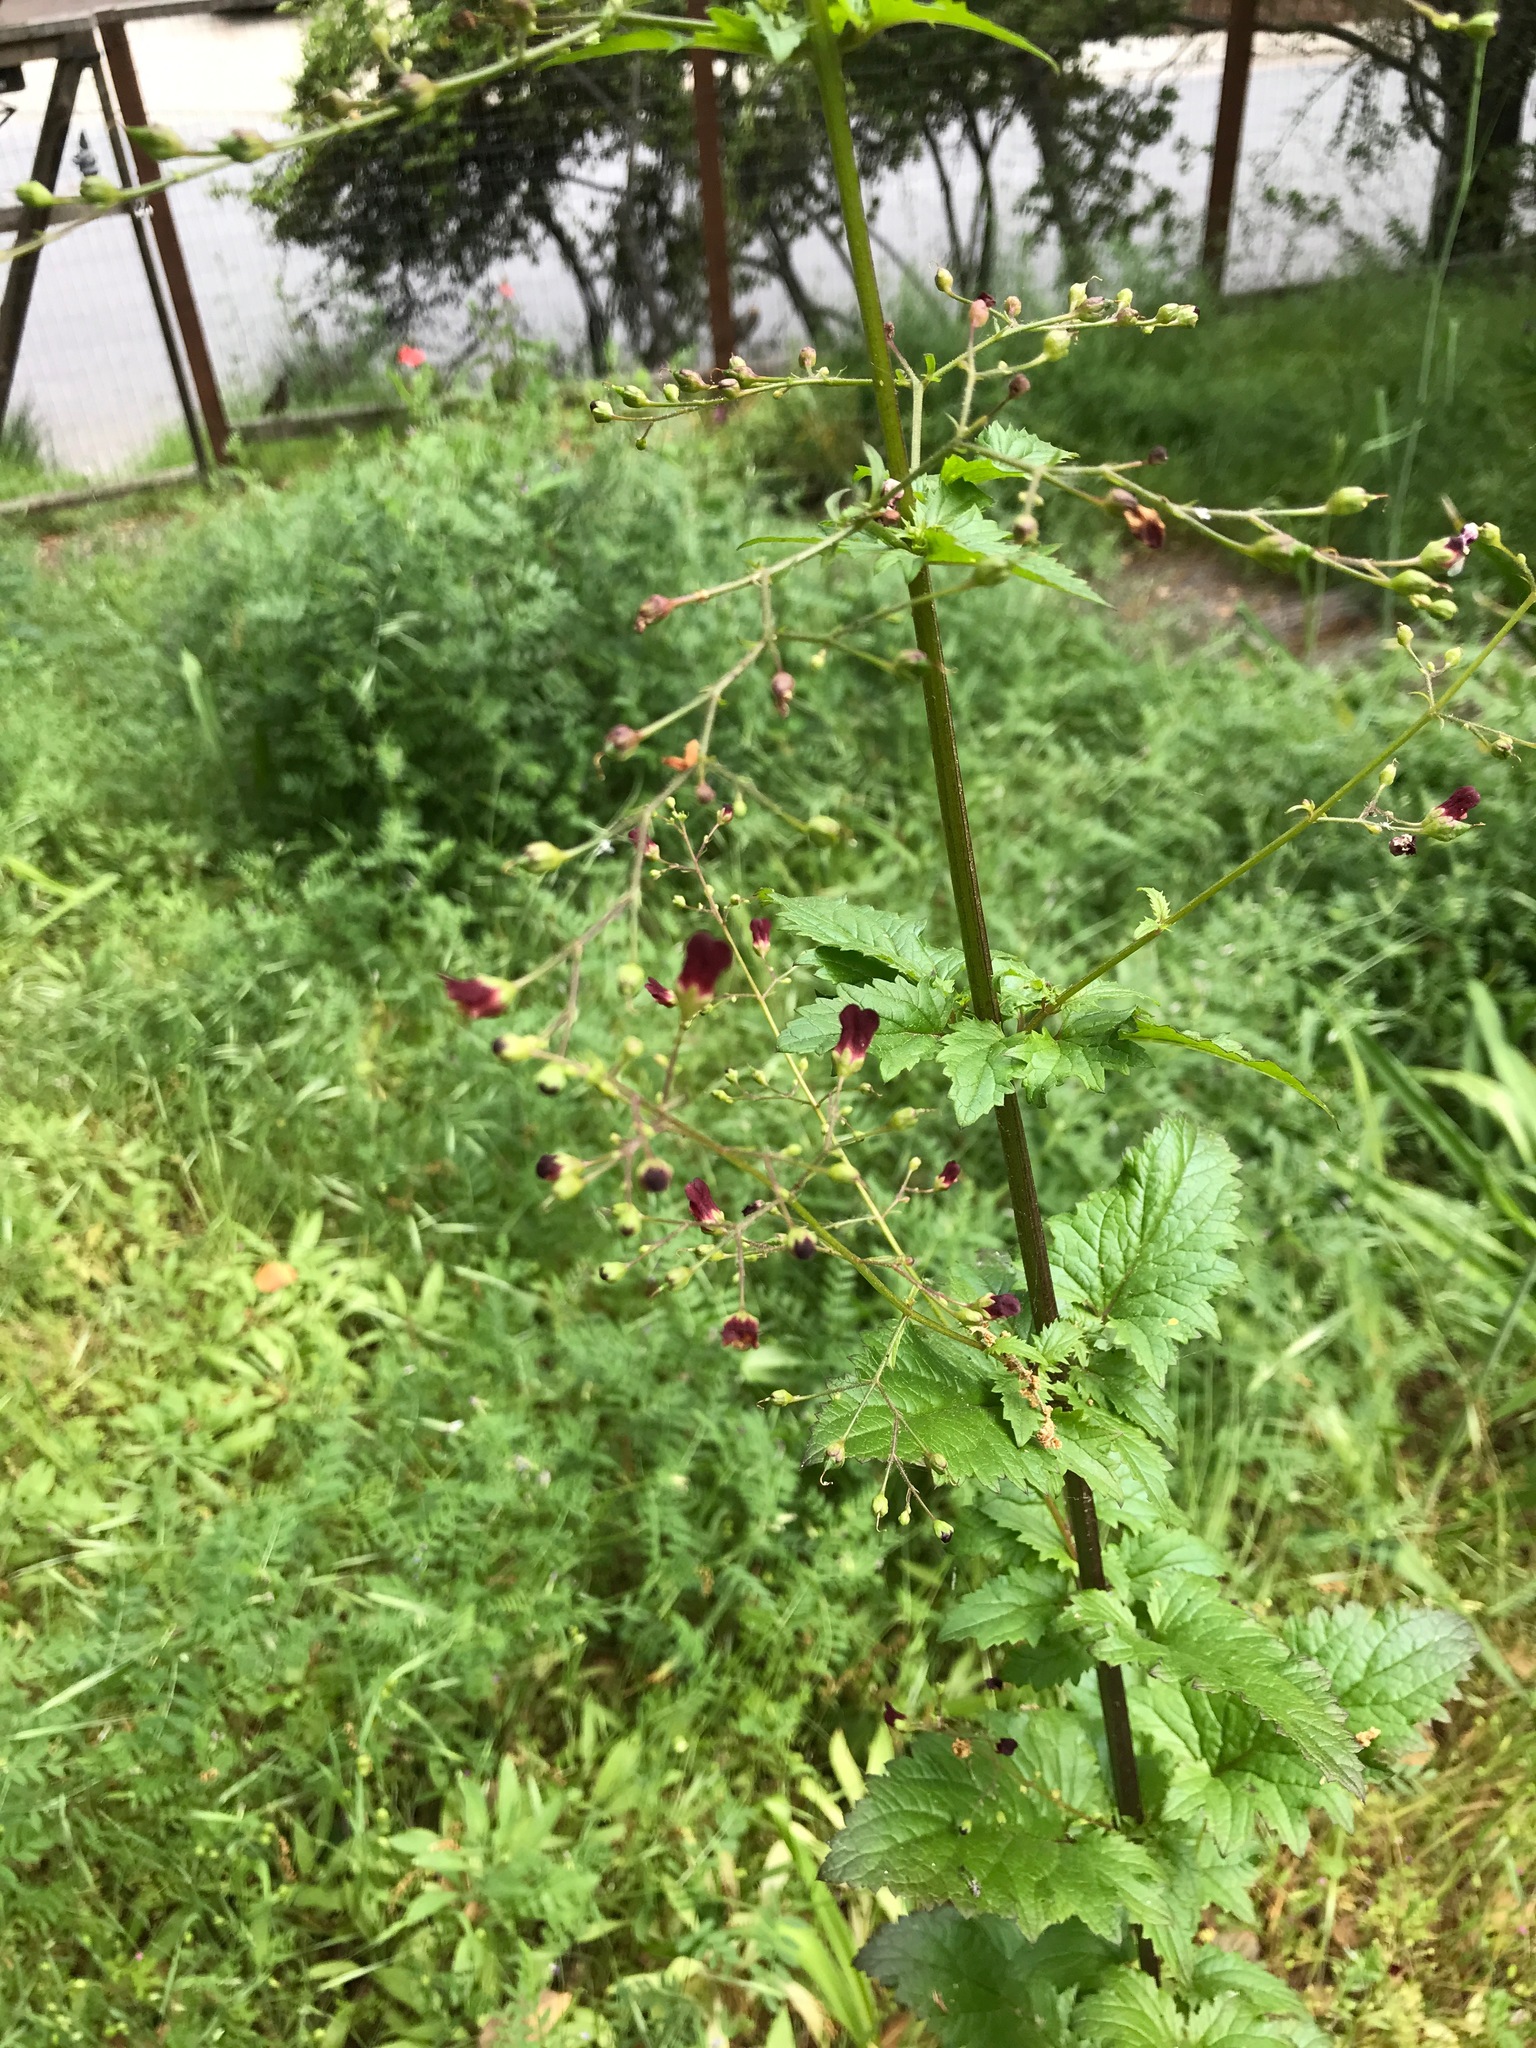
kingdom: Plantae
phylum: Tracheophyta
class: Magnoliopsida
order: Lamiales
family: Scrophulariaceae
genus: Scrophularia
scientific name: Scrophularia californica
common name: California figwort
